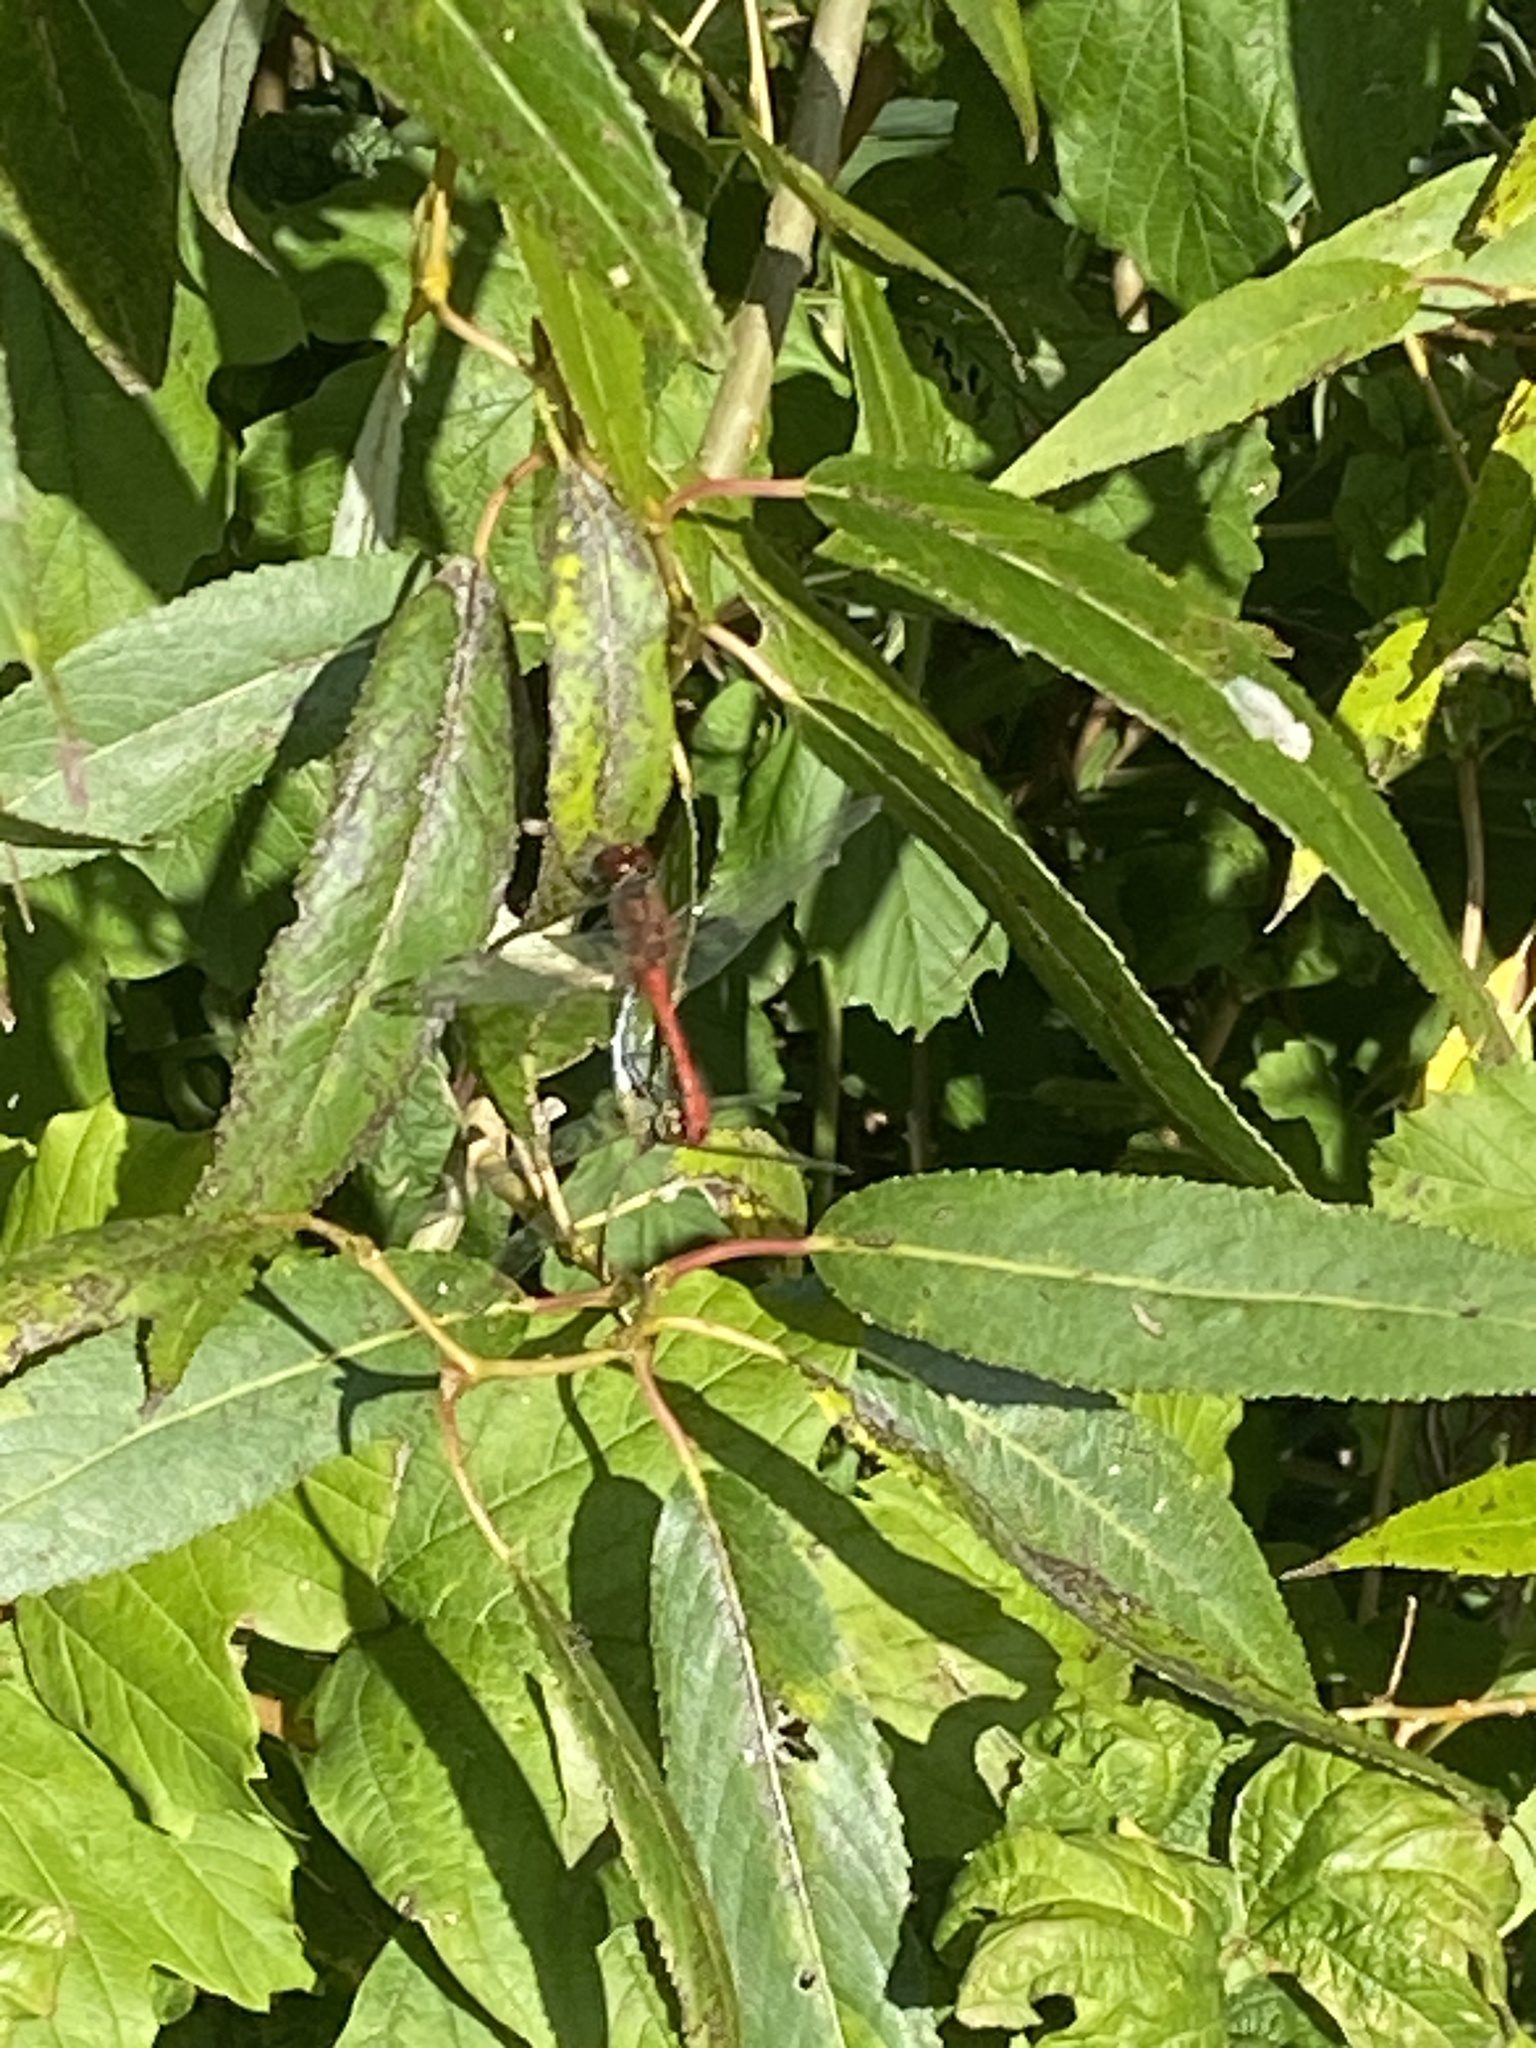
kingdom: Animalia
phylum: Arthropoda
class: Insecta
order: Odonata
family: Libellulidae
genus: Sympetrum
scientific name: Sympetrum sanguineum
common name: Ruddy darter
